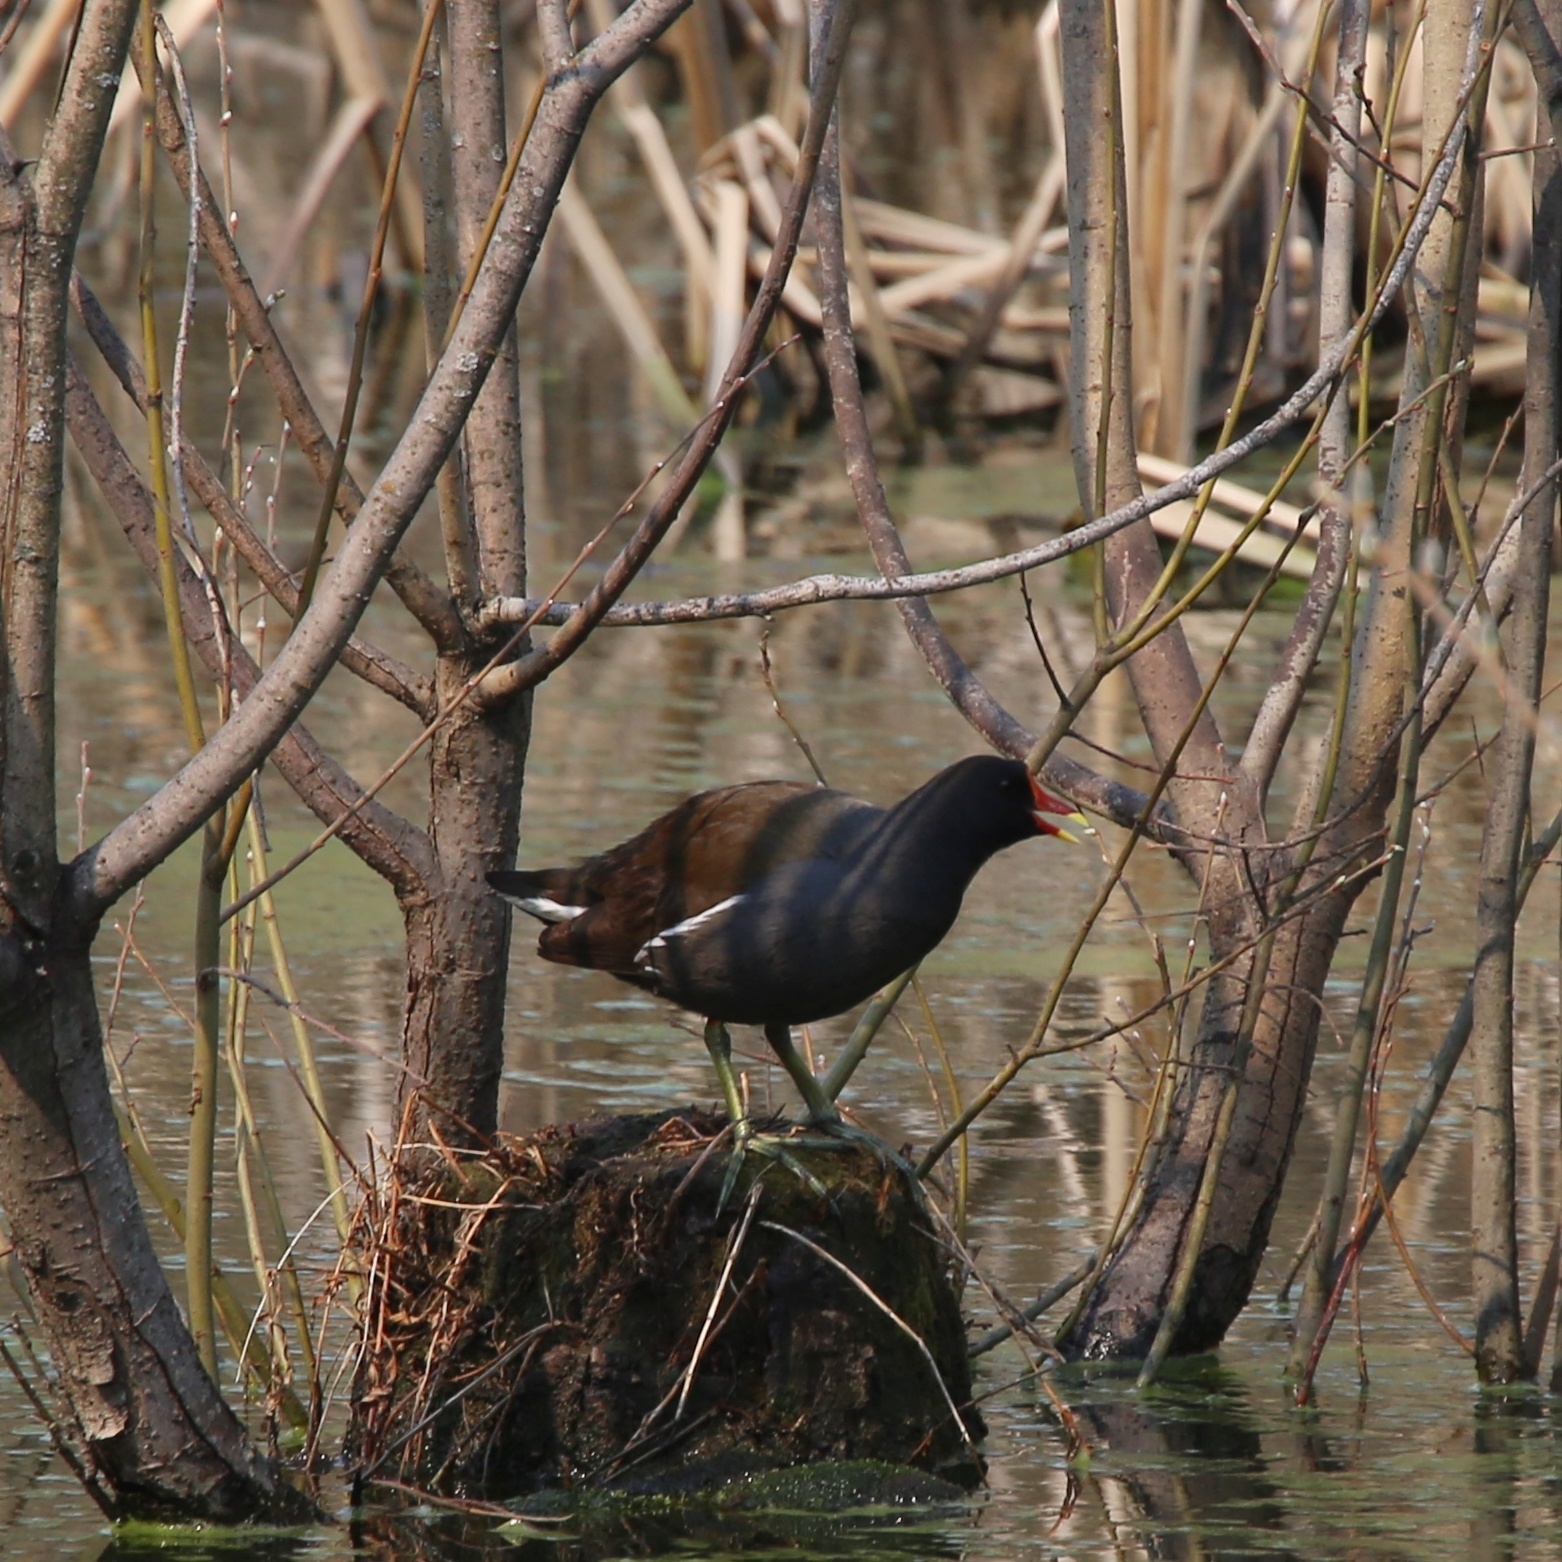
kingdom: Animalia
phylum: Chordata
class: Aves
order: Gruiformes
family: Rallidae
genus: Gallinula
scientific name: Gallinula chloropus
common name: Common moorhen
